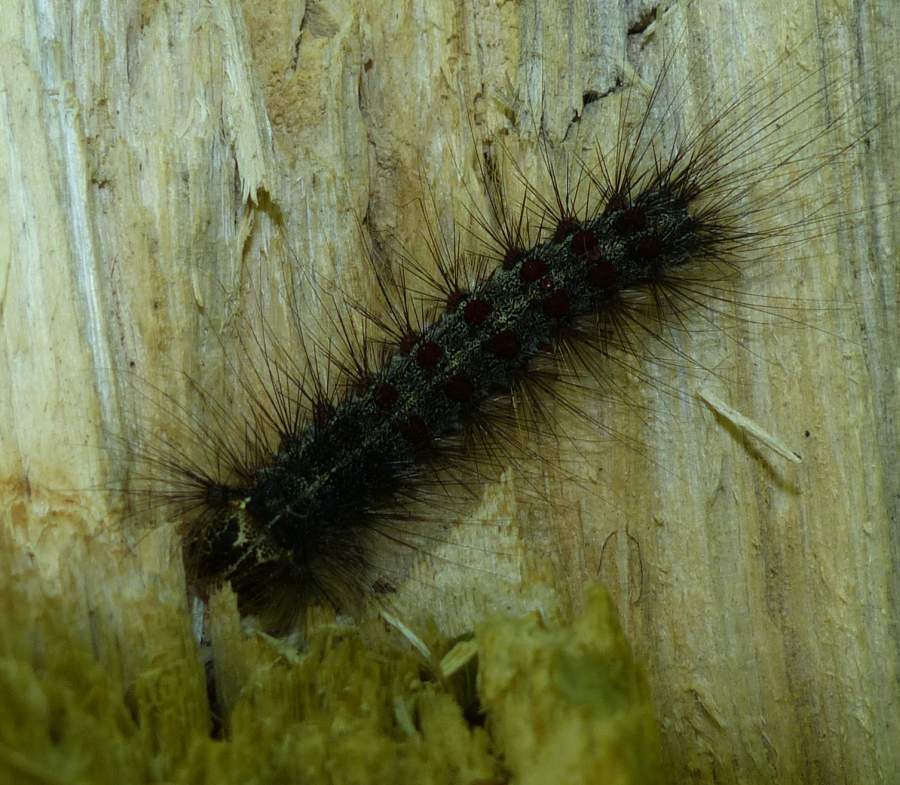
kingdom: Animalia
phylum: Arthropoda
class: Insecta
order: Lepidoptera
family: Erebidae
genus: Lymantria
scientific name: Lymantria dispar
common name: Gypsy moth
